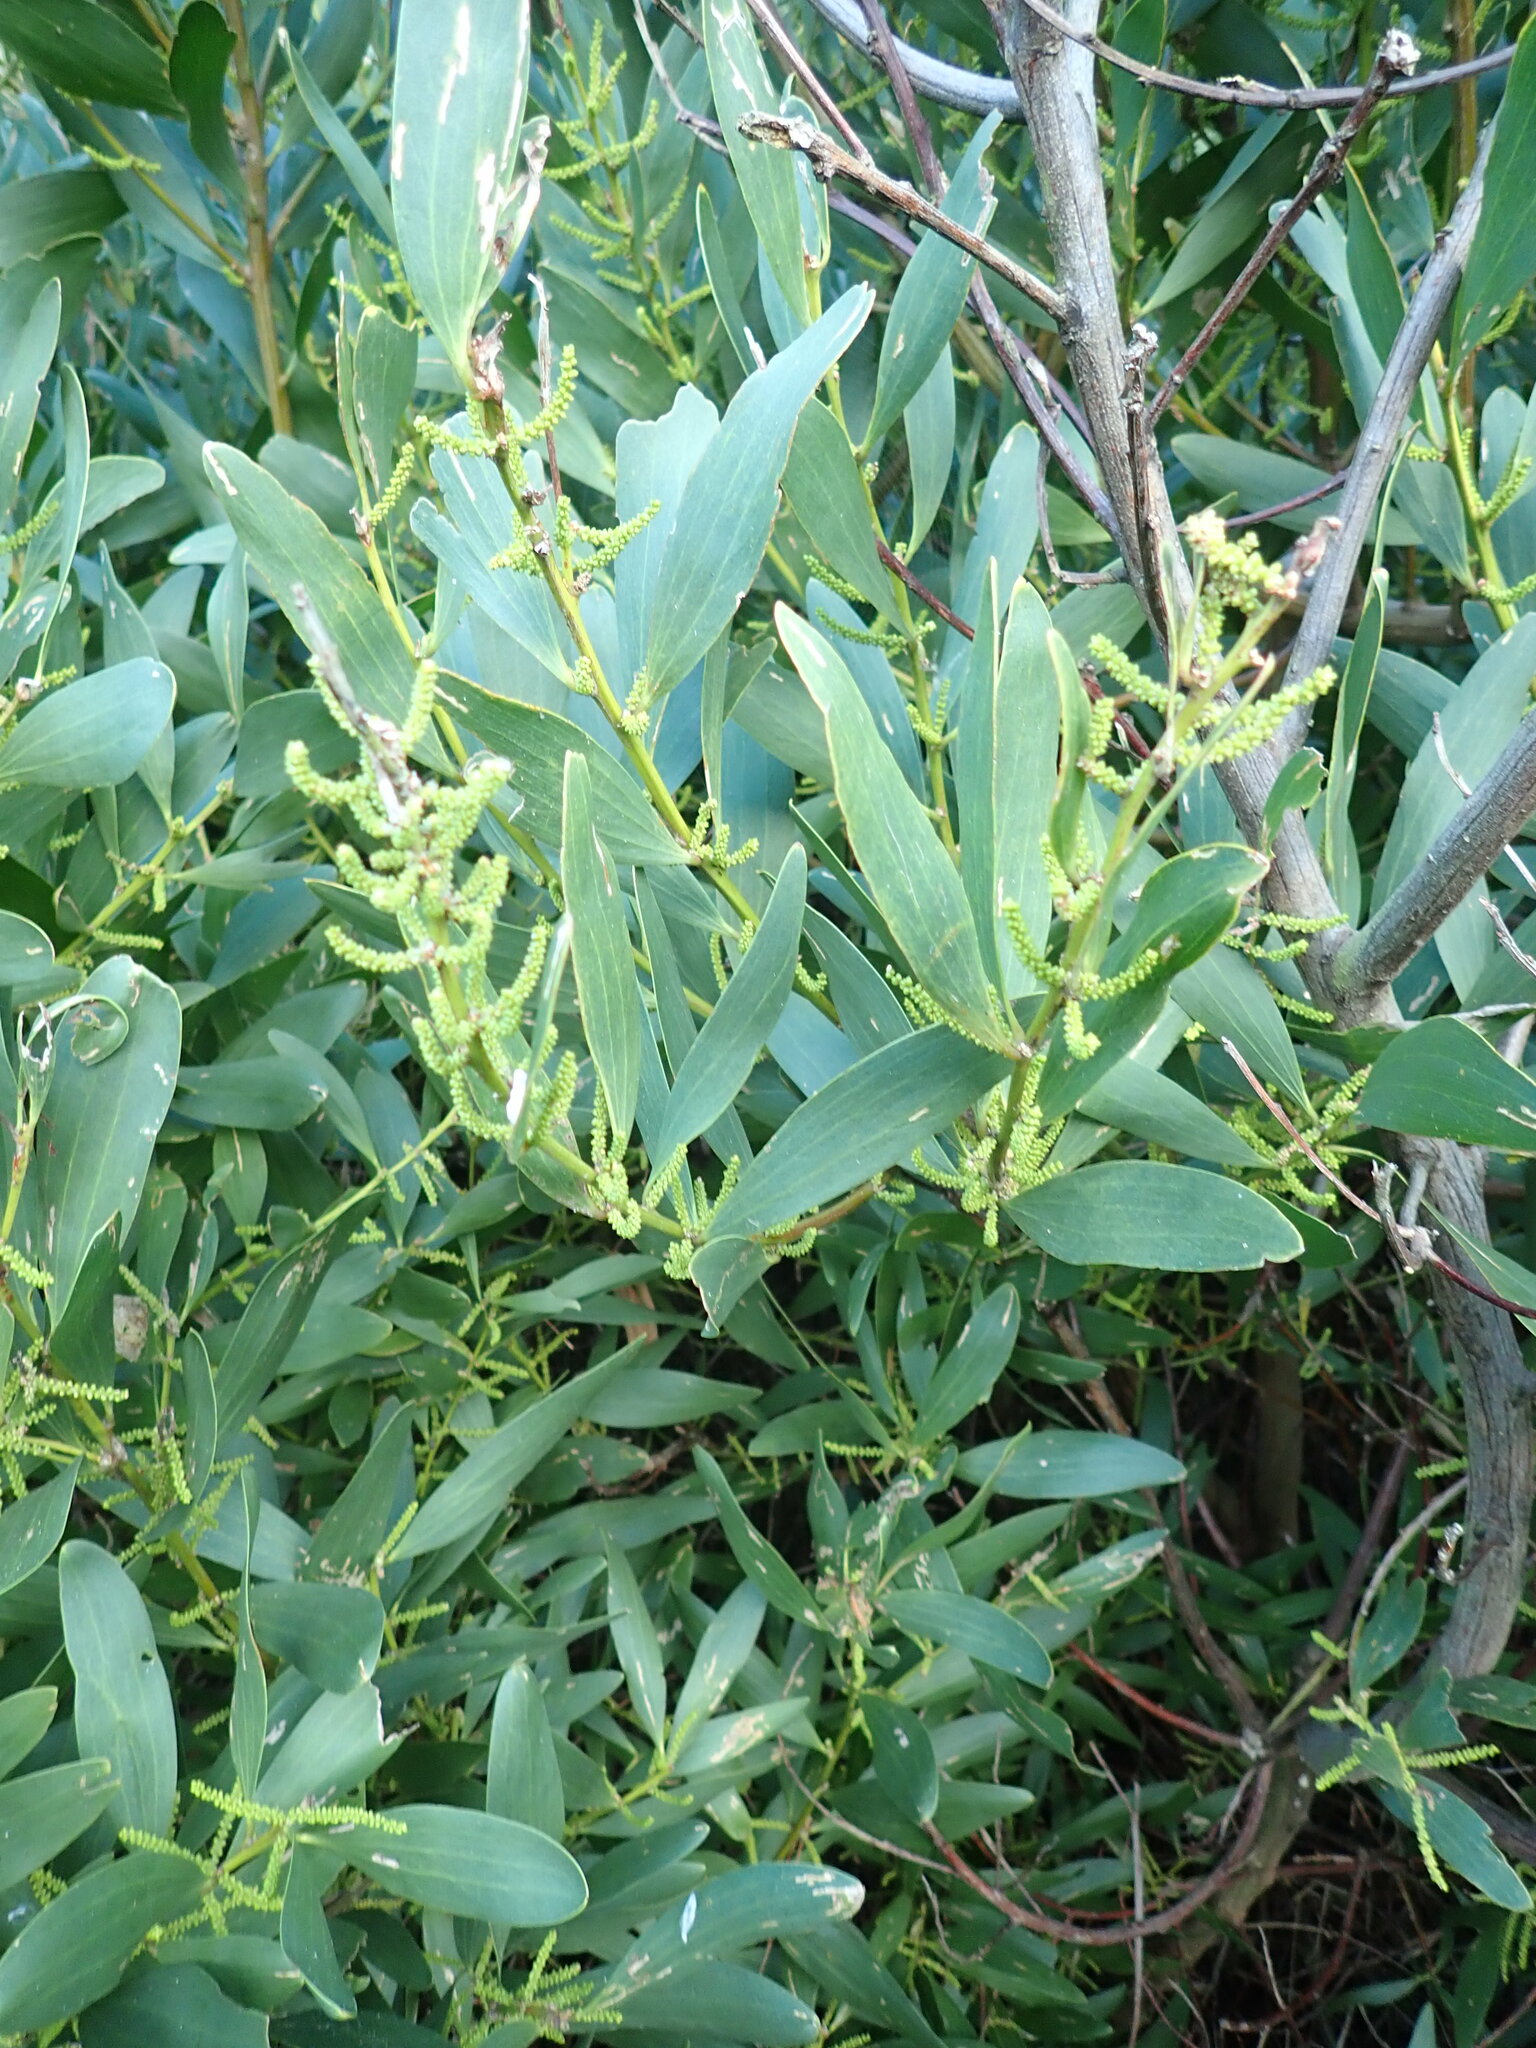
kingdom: Plantae
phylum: Tracheophyta
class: Magnoliopsida
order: Fabales
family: Fabaceae
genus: Acacia
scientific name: Acacia longifolia
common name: Sydney golden wattle
